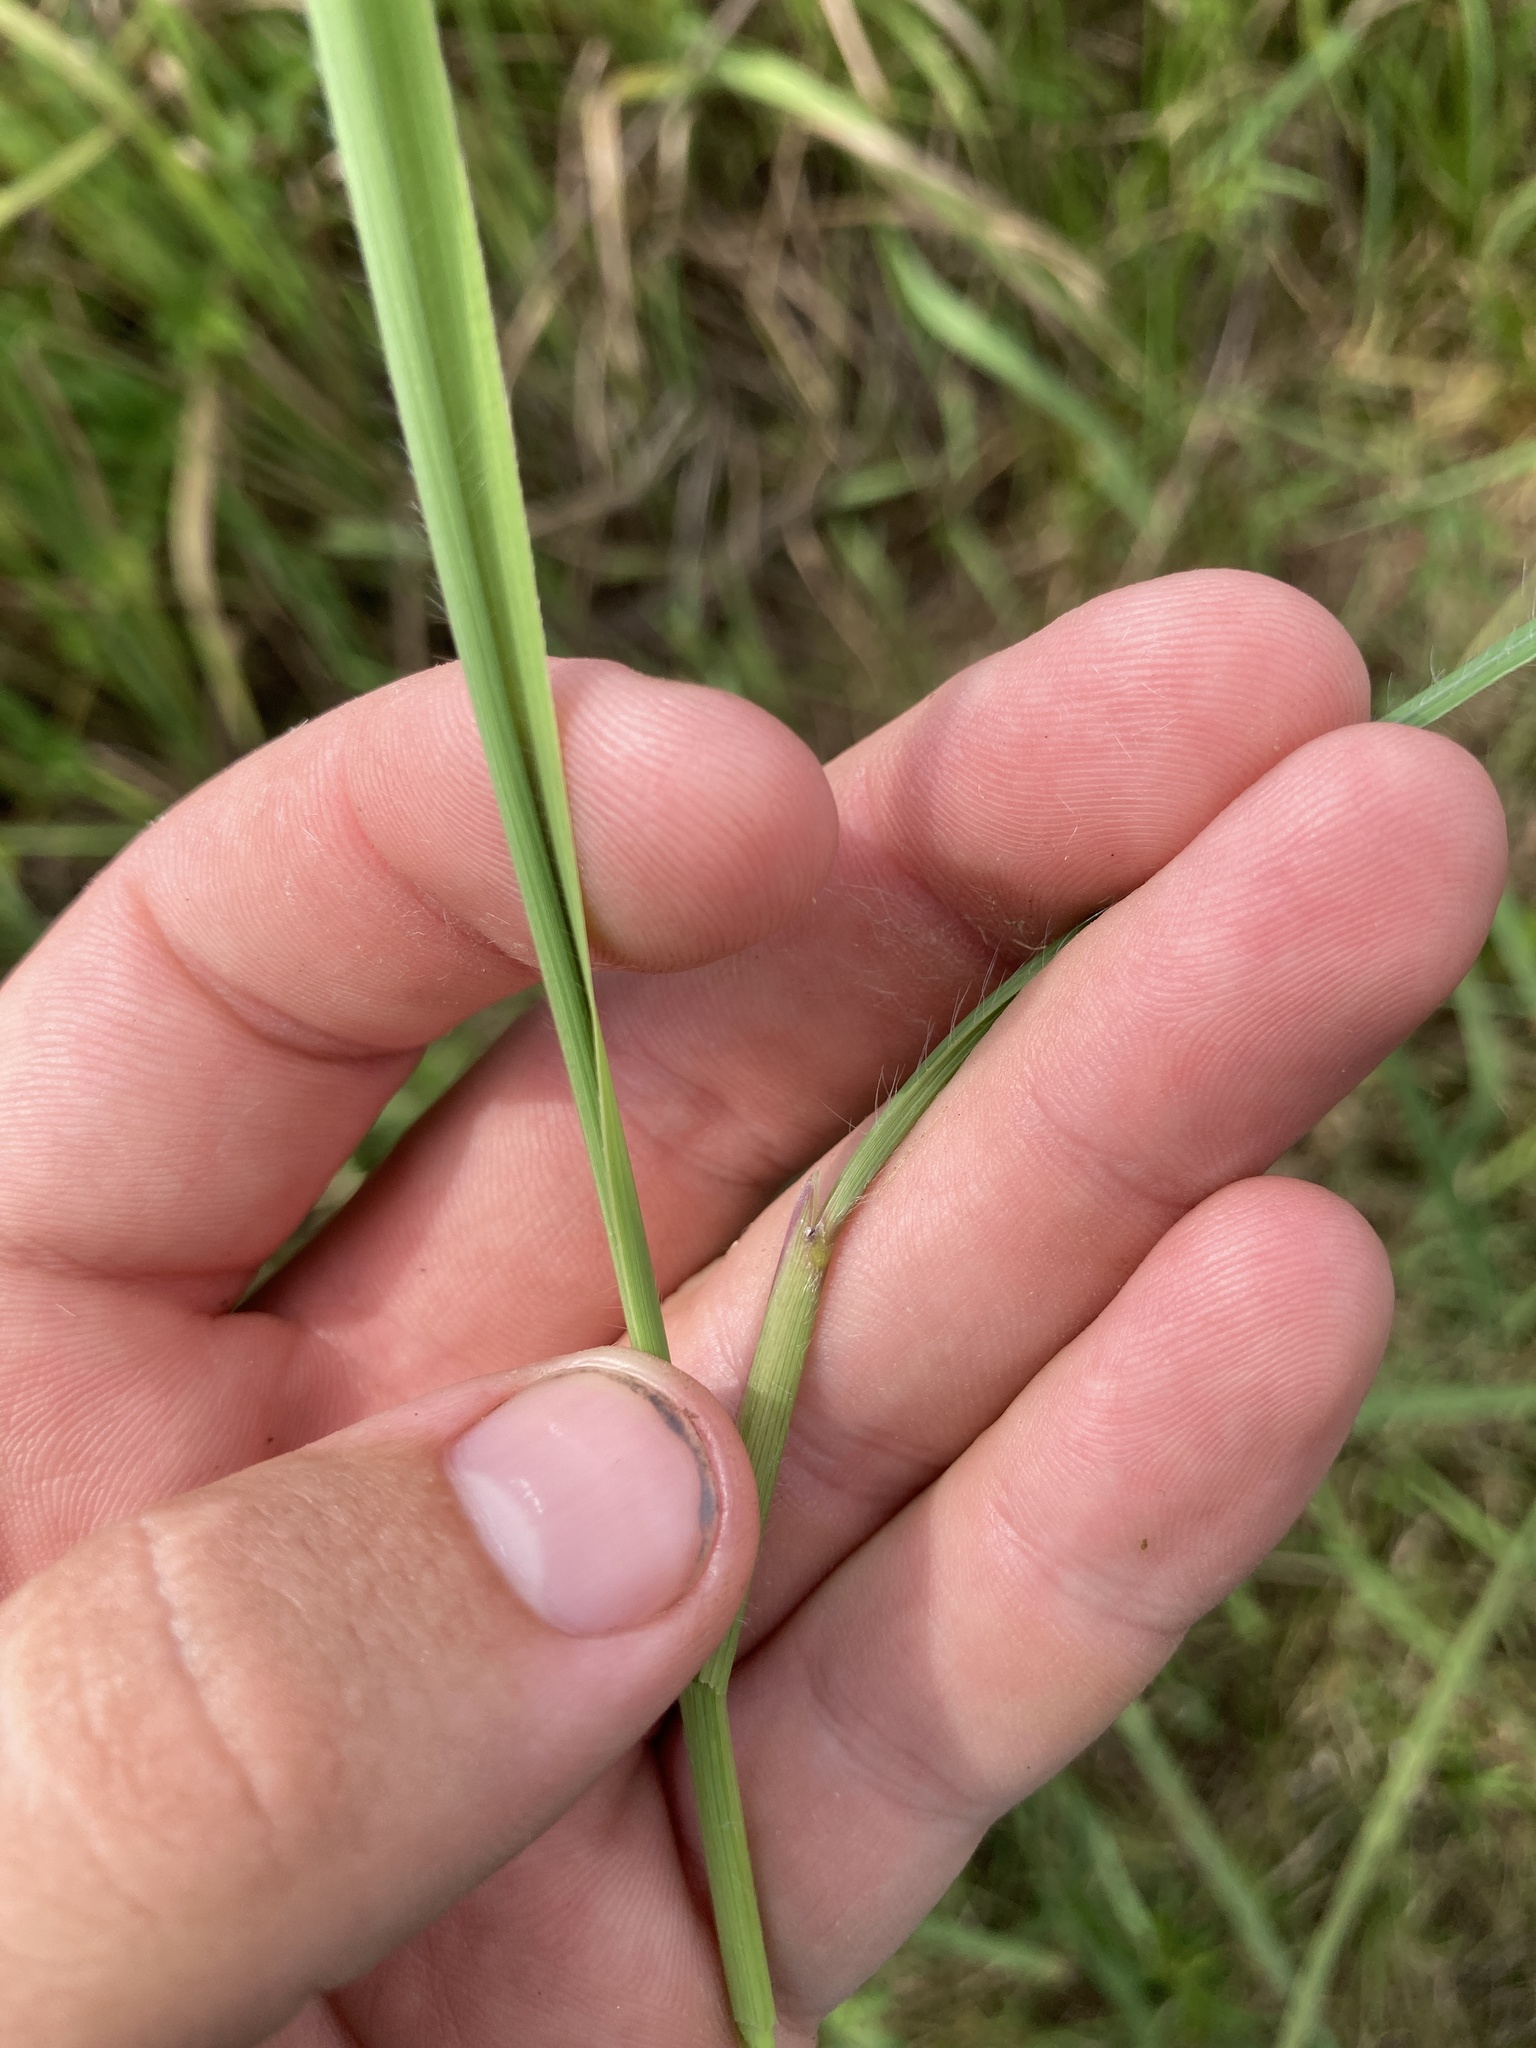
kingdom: Plantae
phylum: Tracheophyta
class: Liliopsida
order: Poales
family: Poaceae
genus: Sorghastrum
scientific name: Sorghastrum nutans
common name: Indian grass
